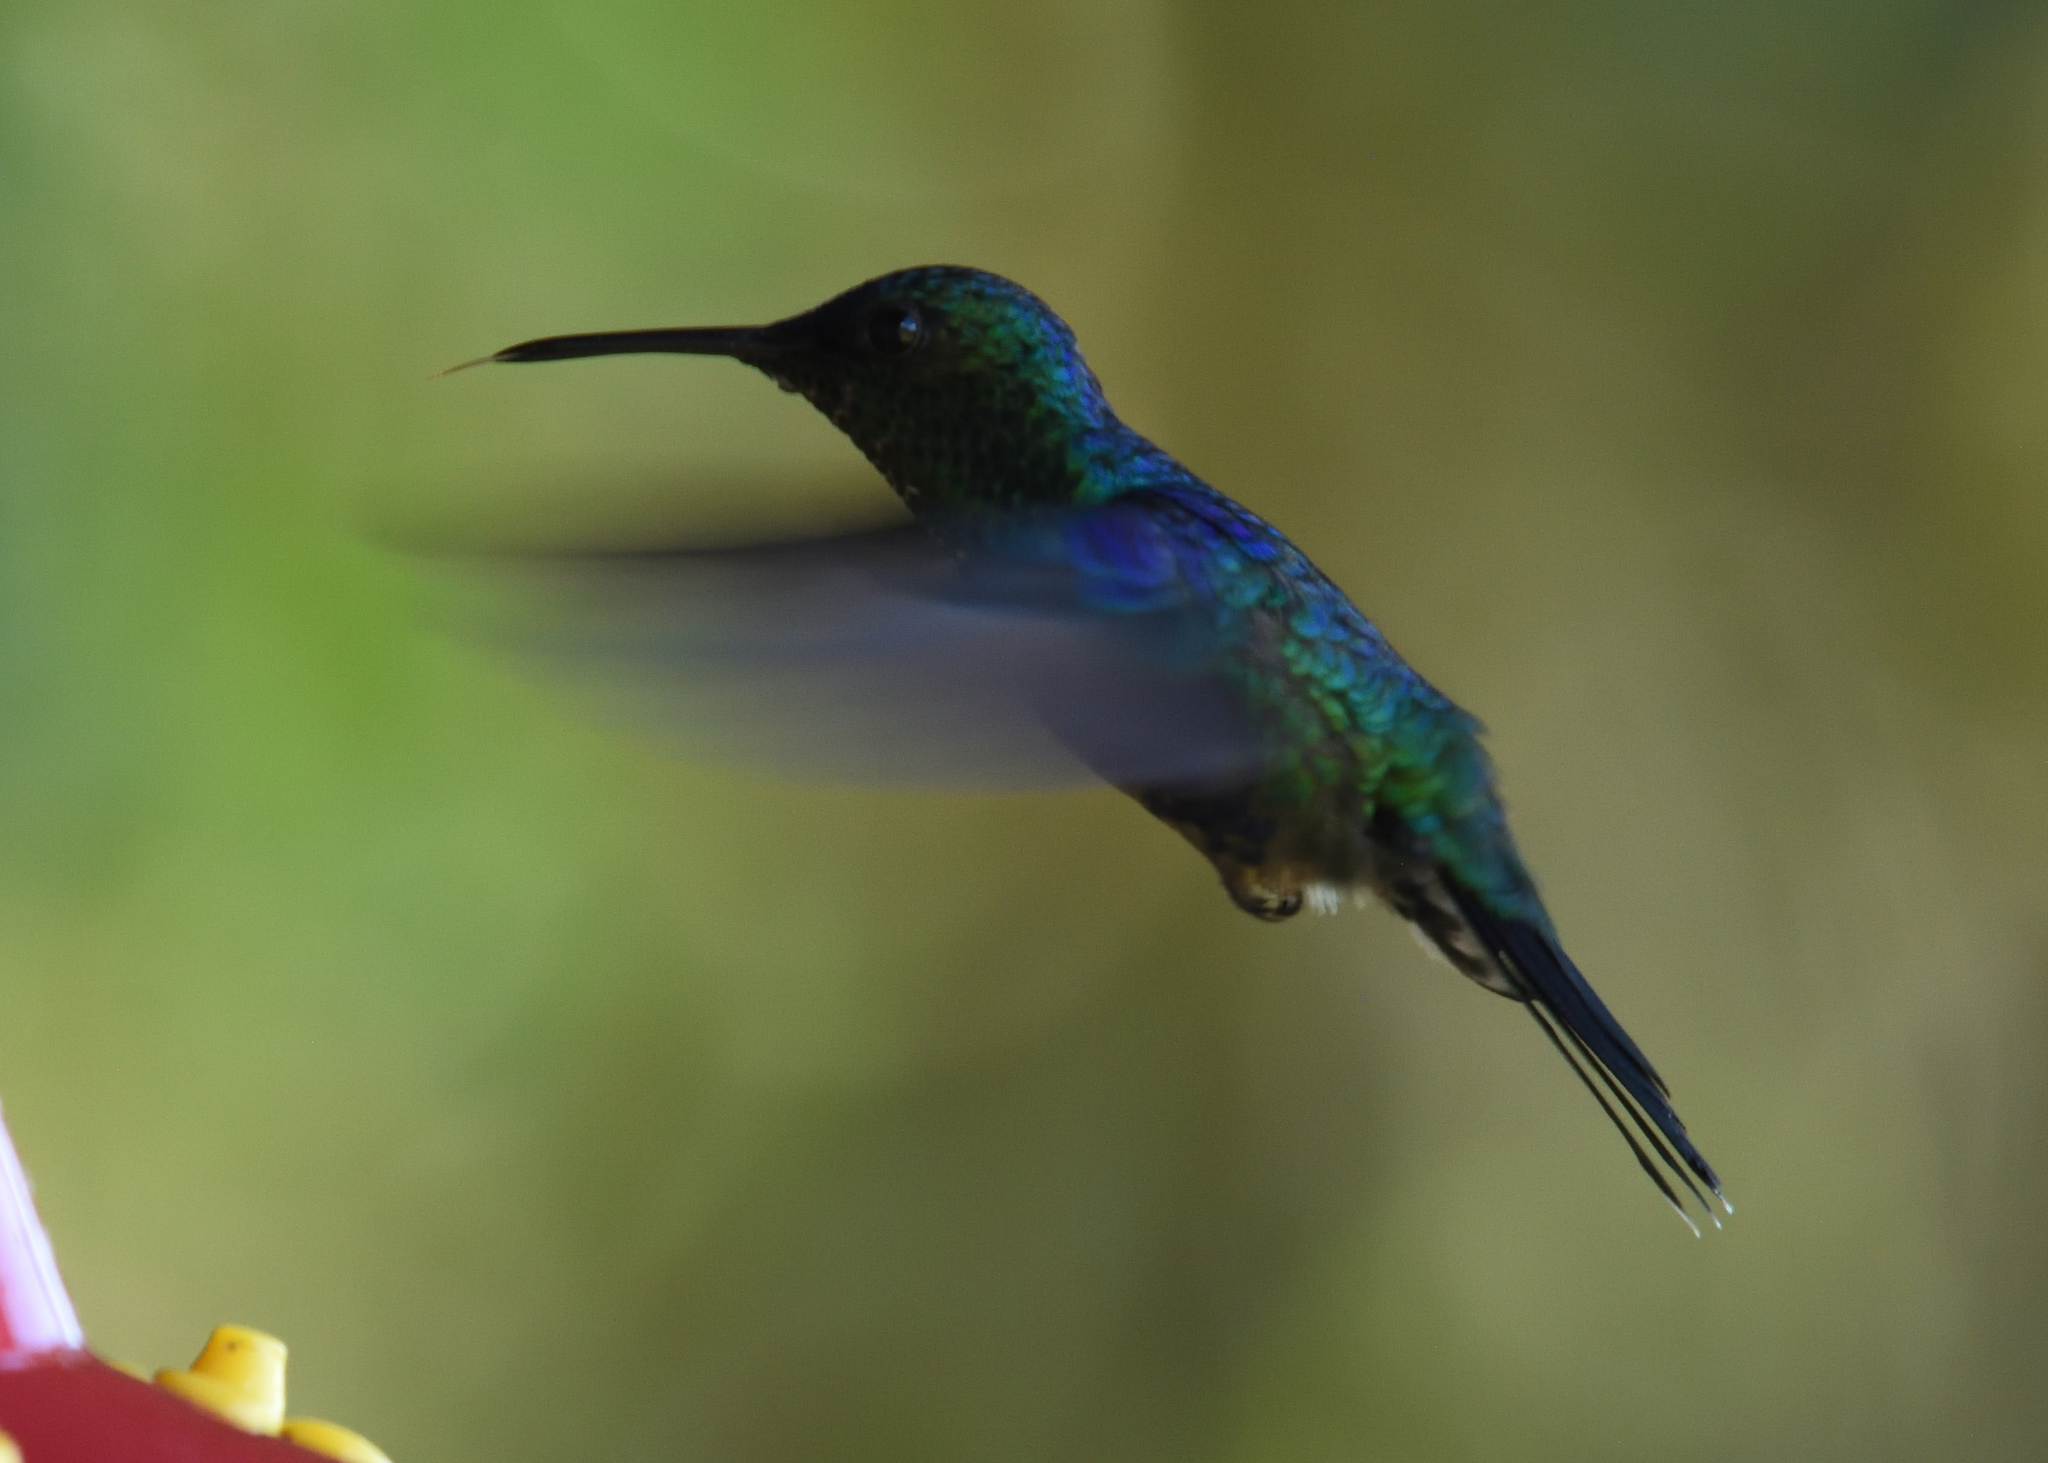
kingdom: Animalia
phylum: Chordata
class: Aves
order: Apodiformes
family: Trochilidae
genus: Thalurania
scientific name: Thalurania colombica
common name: Crowned woodnymph
